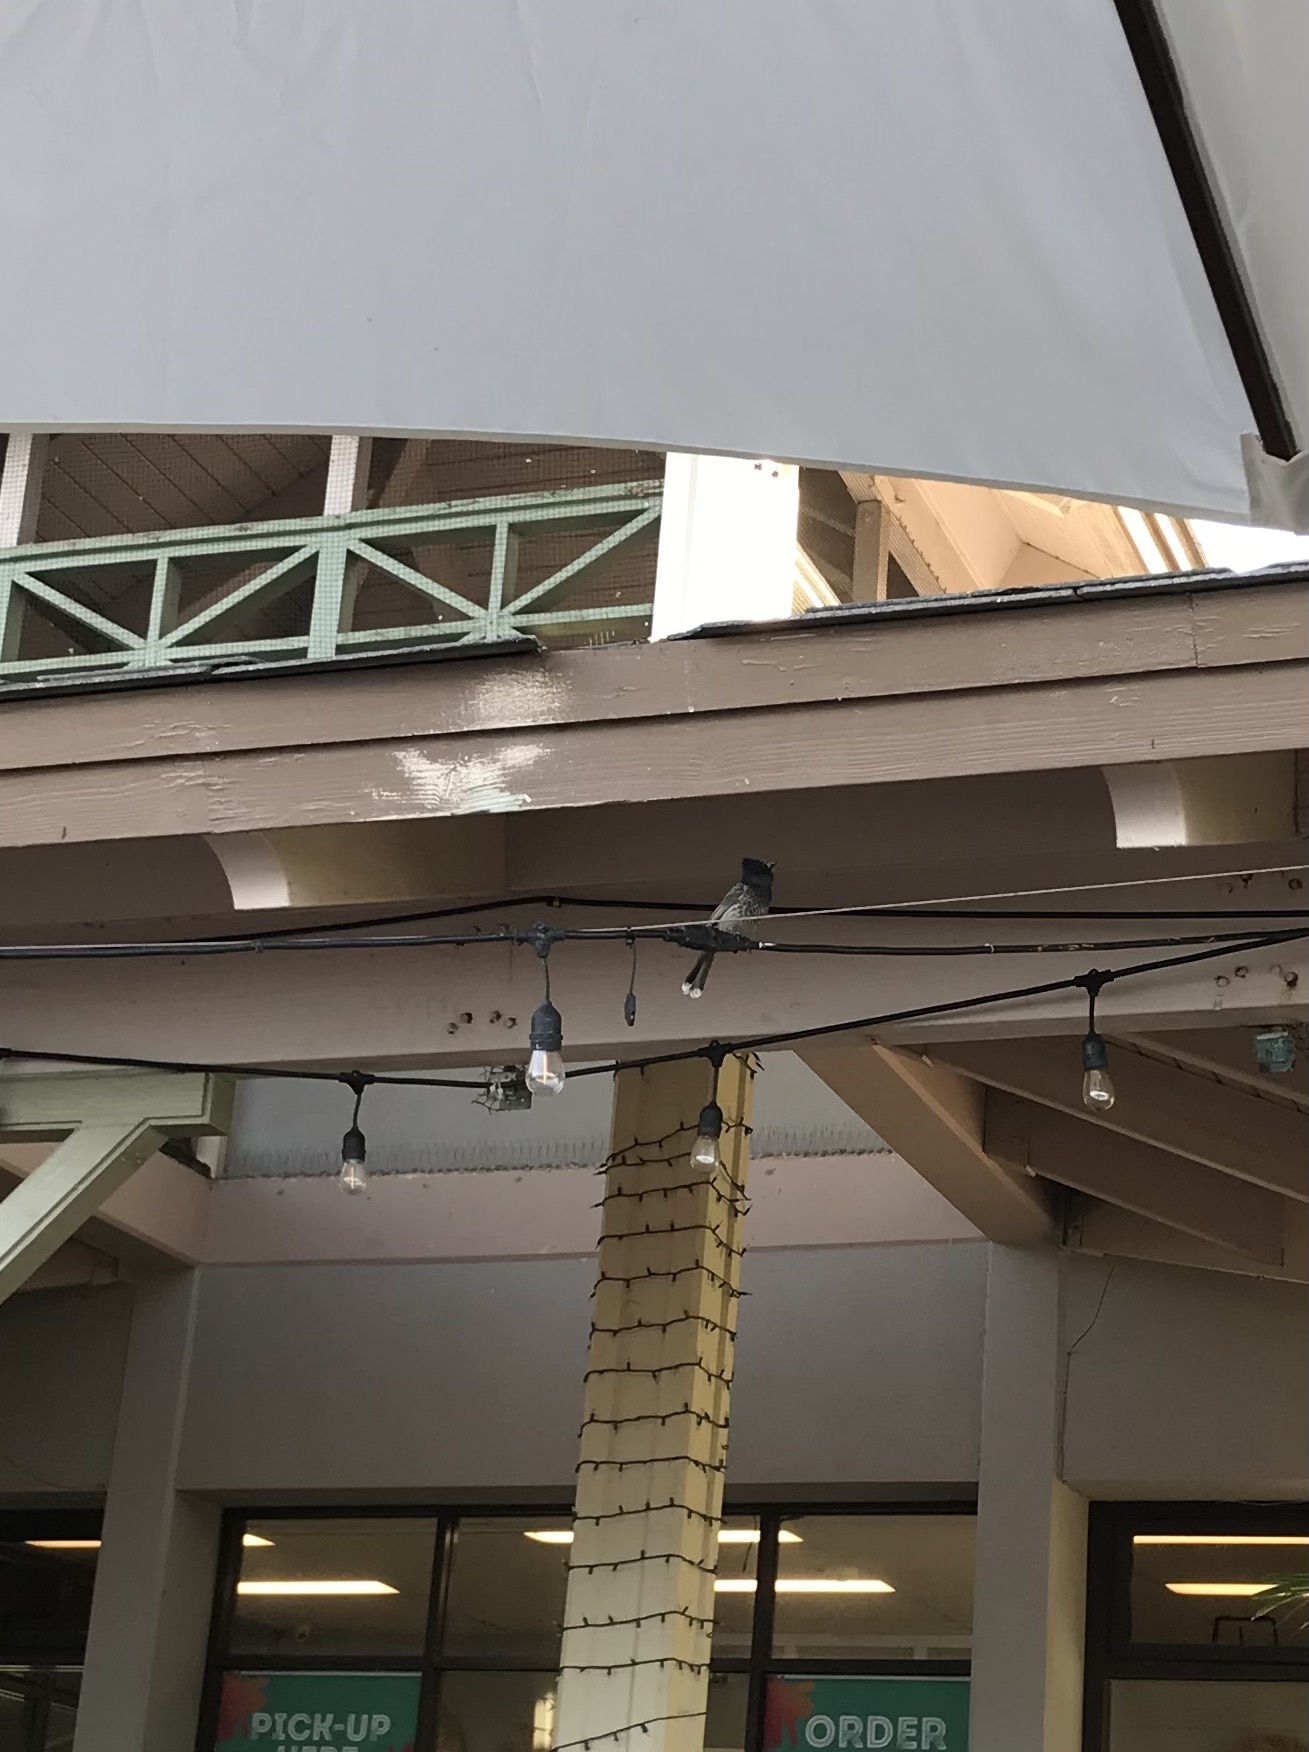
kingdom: Animalia
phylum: Chordata
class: Aves
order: Passeriformes
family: Pycnonotidae
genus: Pycnonotus
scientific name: Pycnonotus cafer
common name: Red-vented bulbul
